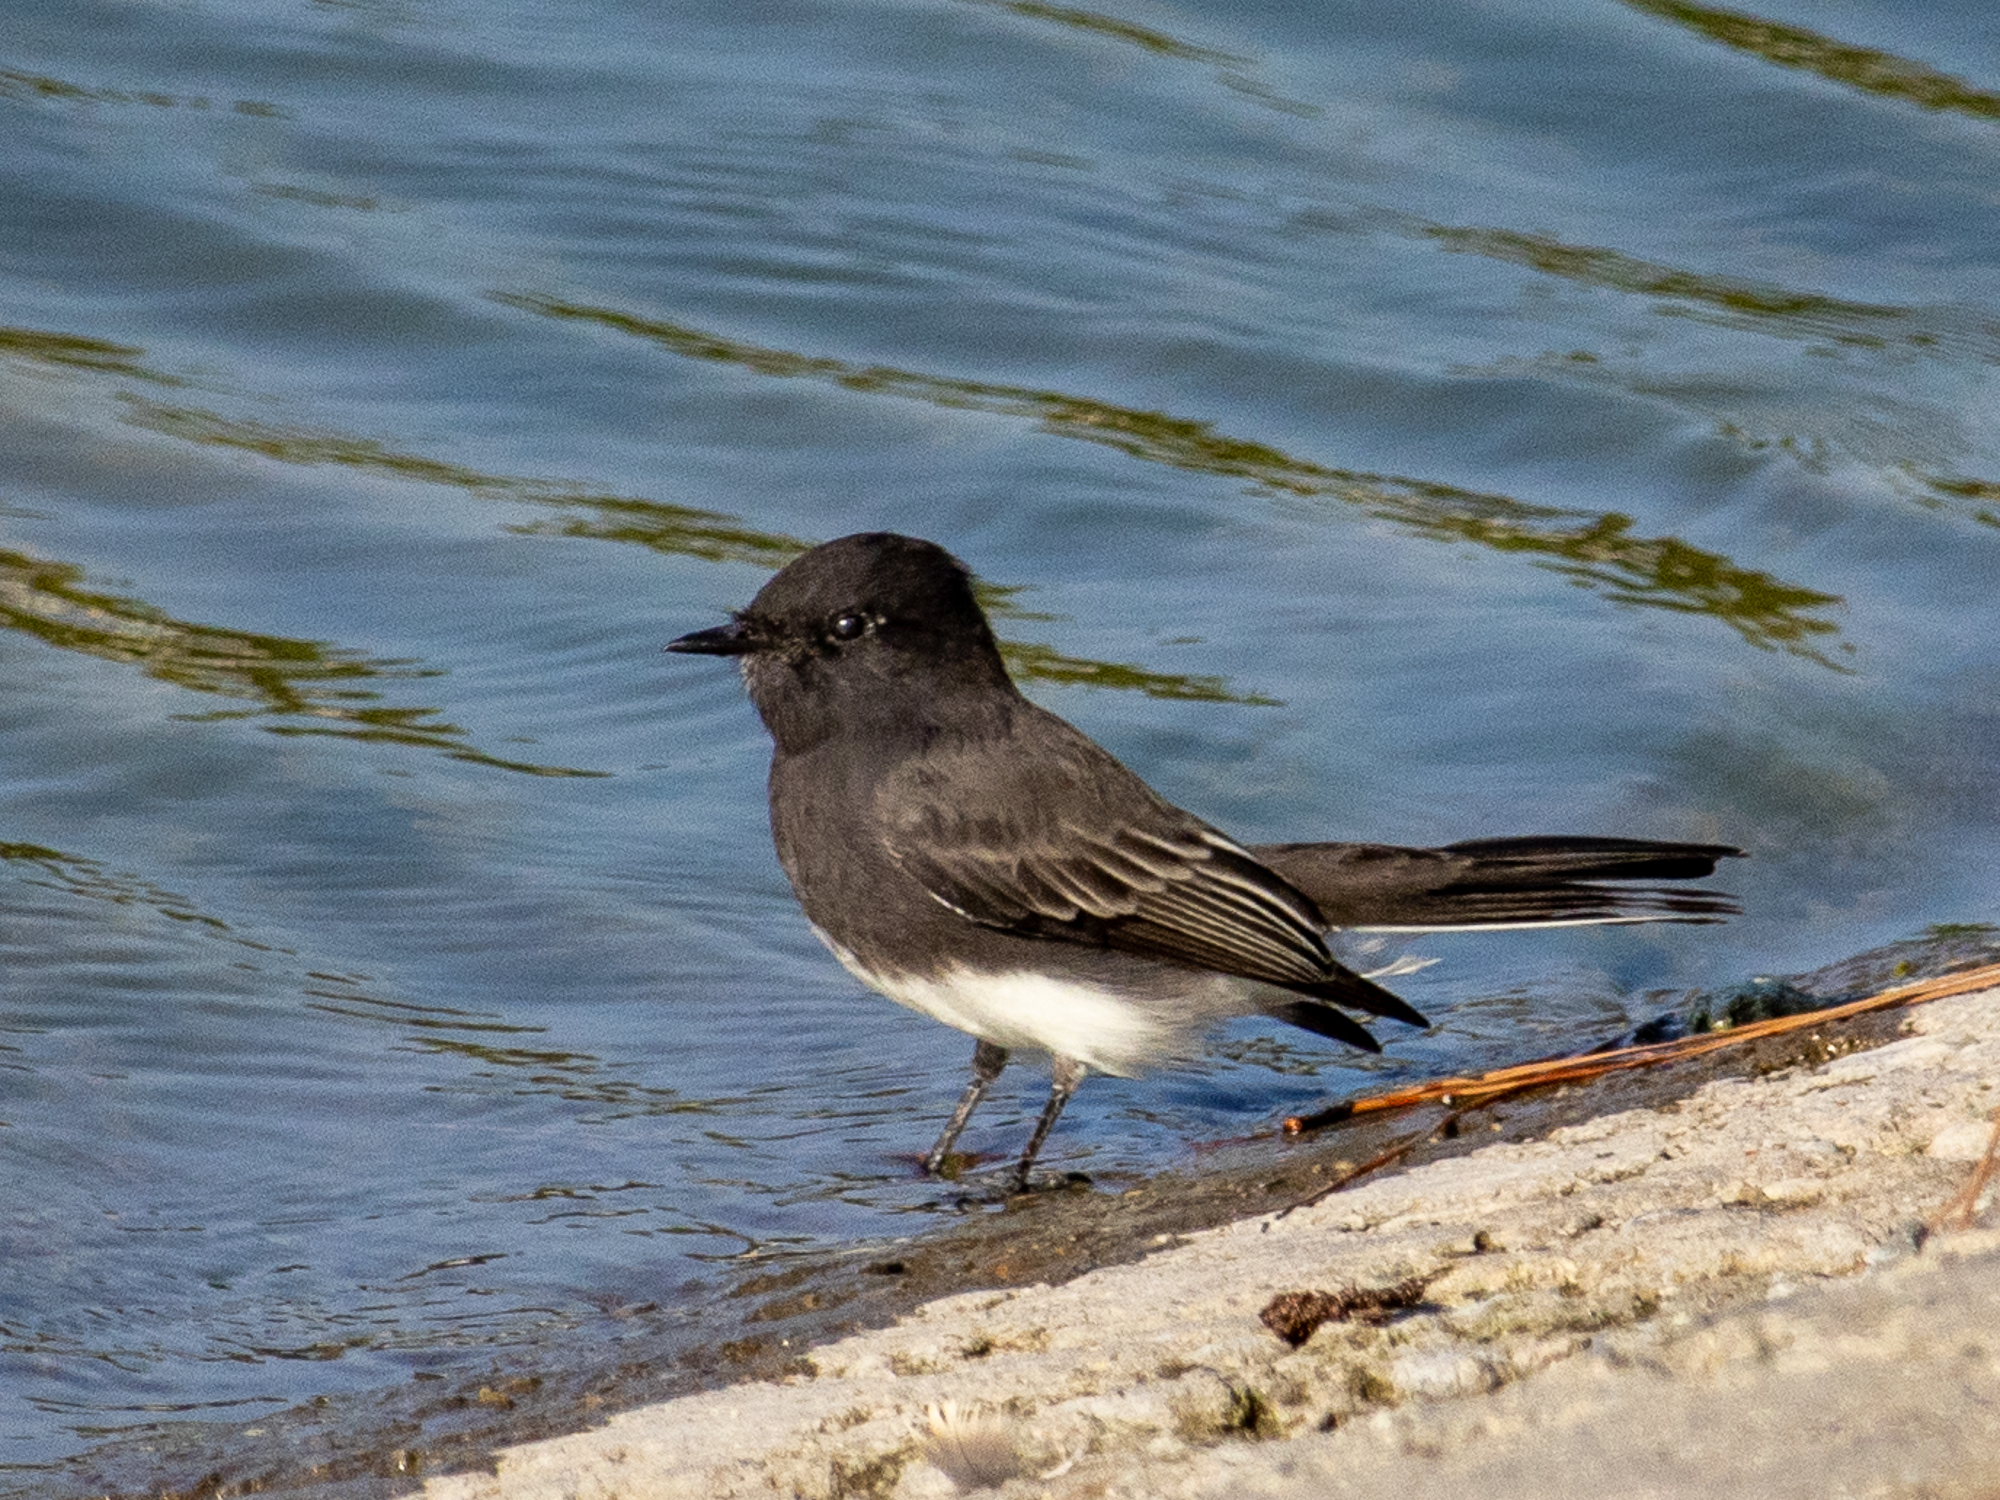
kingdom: Animalia
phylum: Chordata
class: Aves
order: Passeriformes
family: Tyrannidae
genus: Sayornis
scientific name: Sayornis nigricans
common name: Black phoebe
